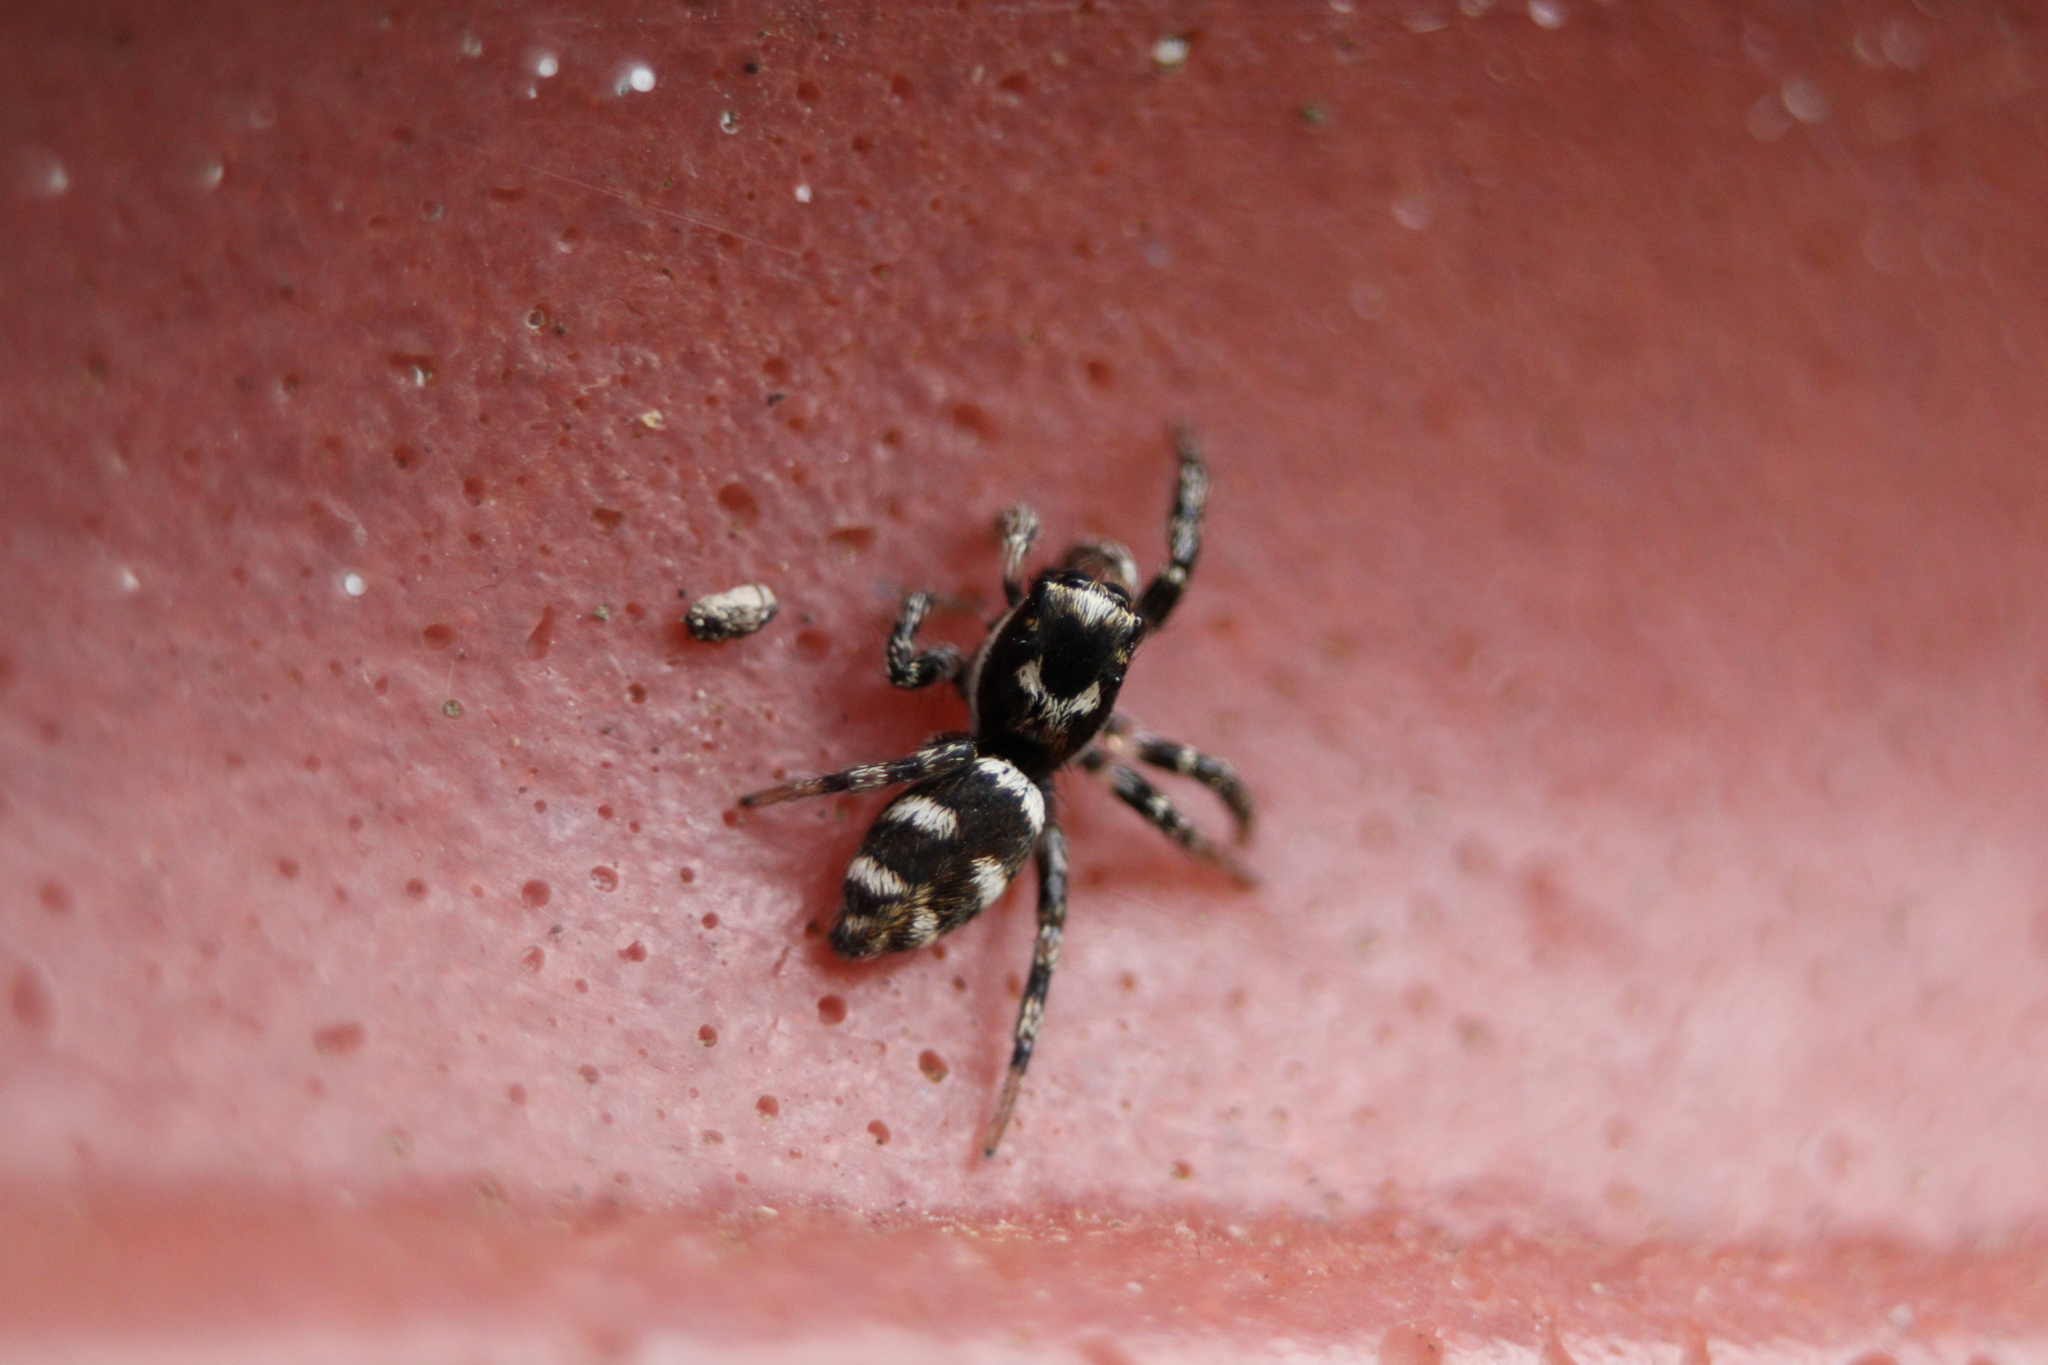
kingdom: Animalia
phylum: Arthropoda
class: Arachnida
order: Araneae
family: Salticidae
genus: Salticus
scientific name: Salticus scenicus
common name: Zebra jumper
